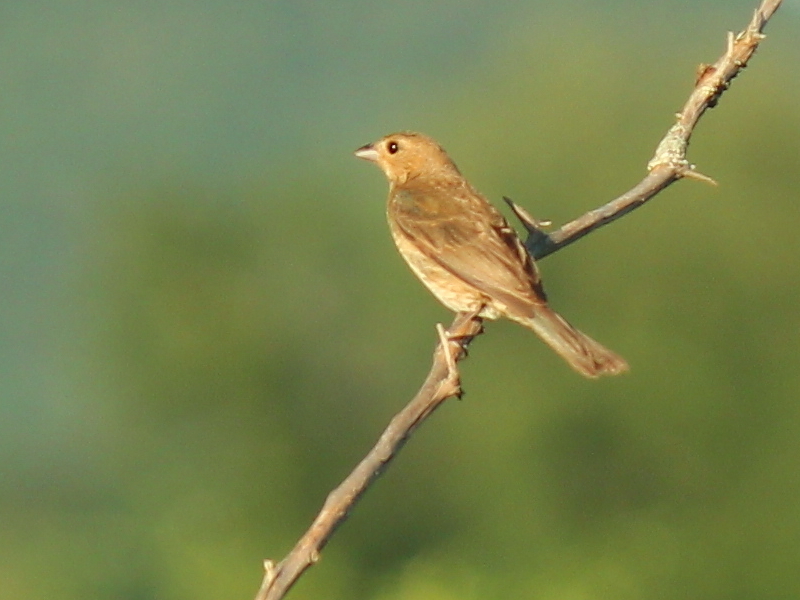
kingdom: Animalia
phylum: Chordata
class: Aves
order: Passeriformes
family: Cardinalidae
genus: Passerina
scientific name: Passerina cyanea
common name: Indigo bunting
